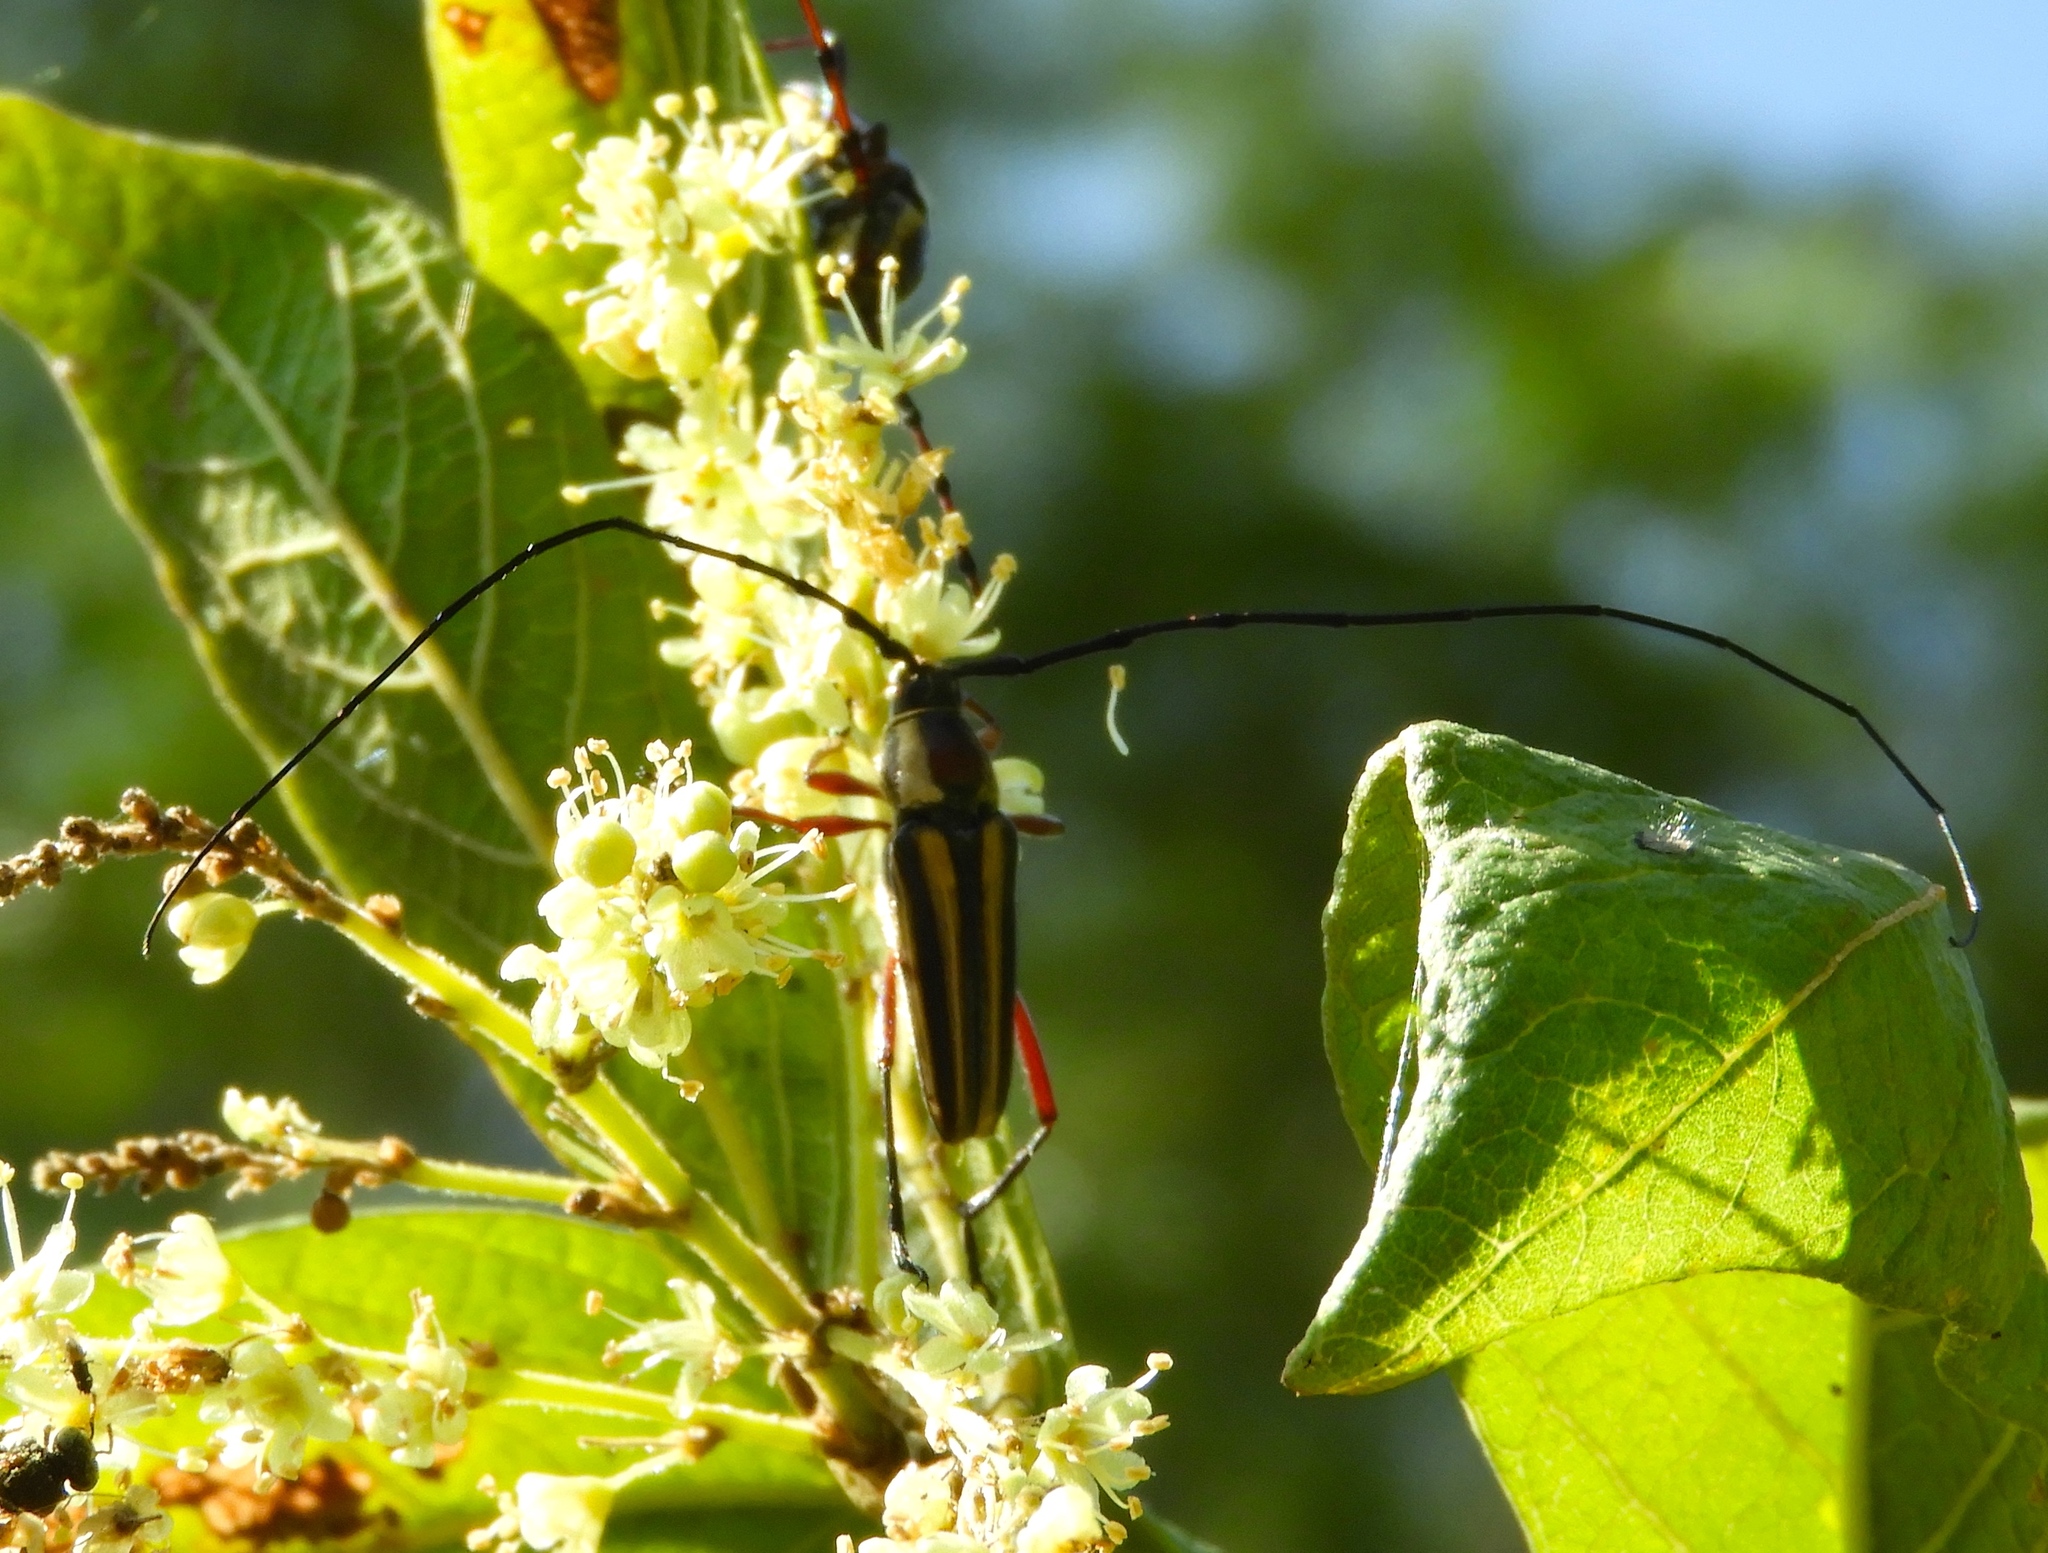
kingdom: Animalia
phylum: Arthropoda
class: Insecta
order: Coleoptera
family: Cerambycidae
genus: Sphaenothecus
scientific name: Sphaenothecus maccartyi
